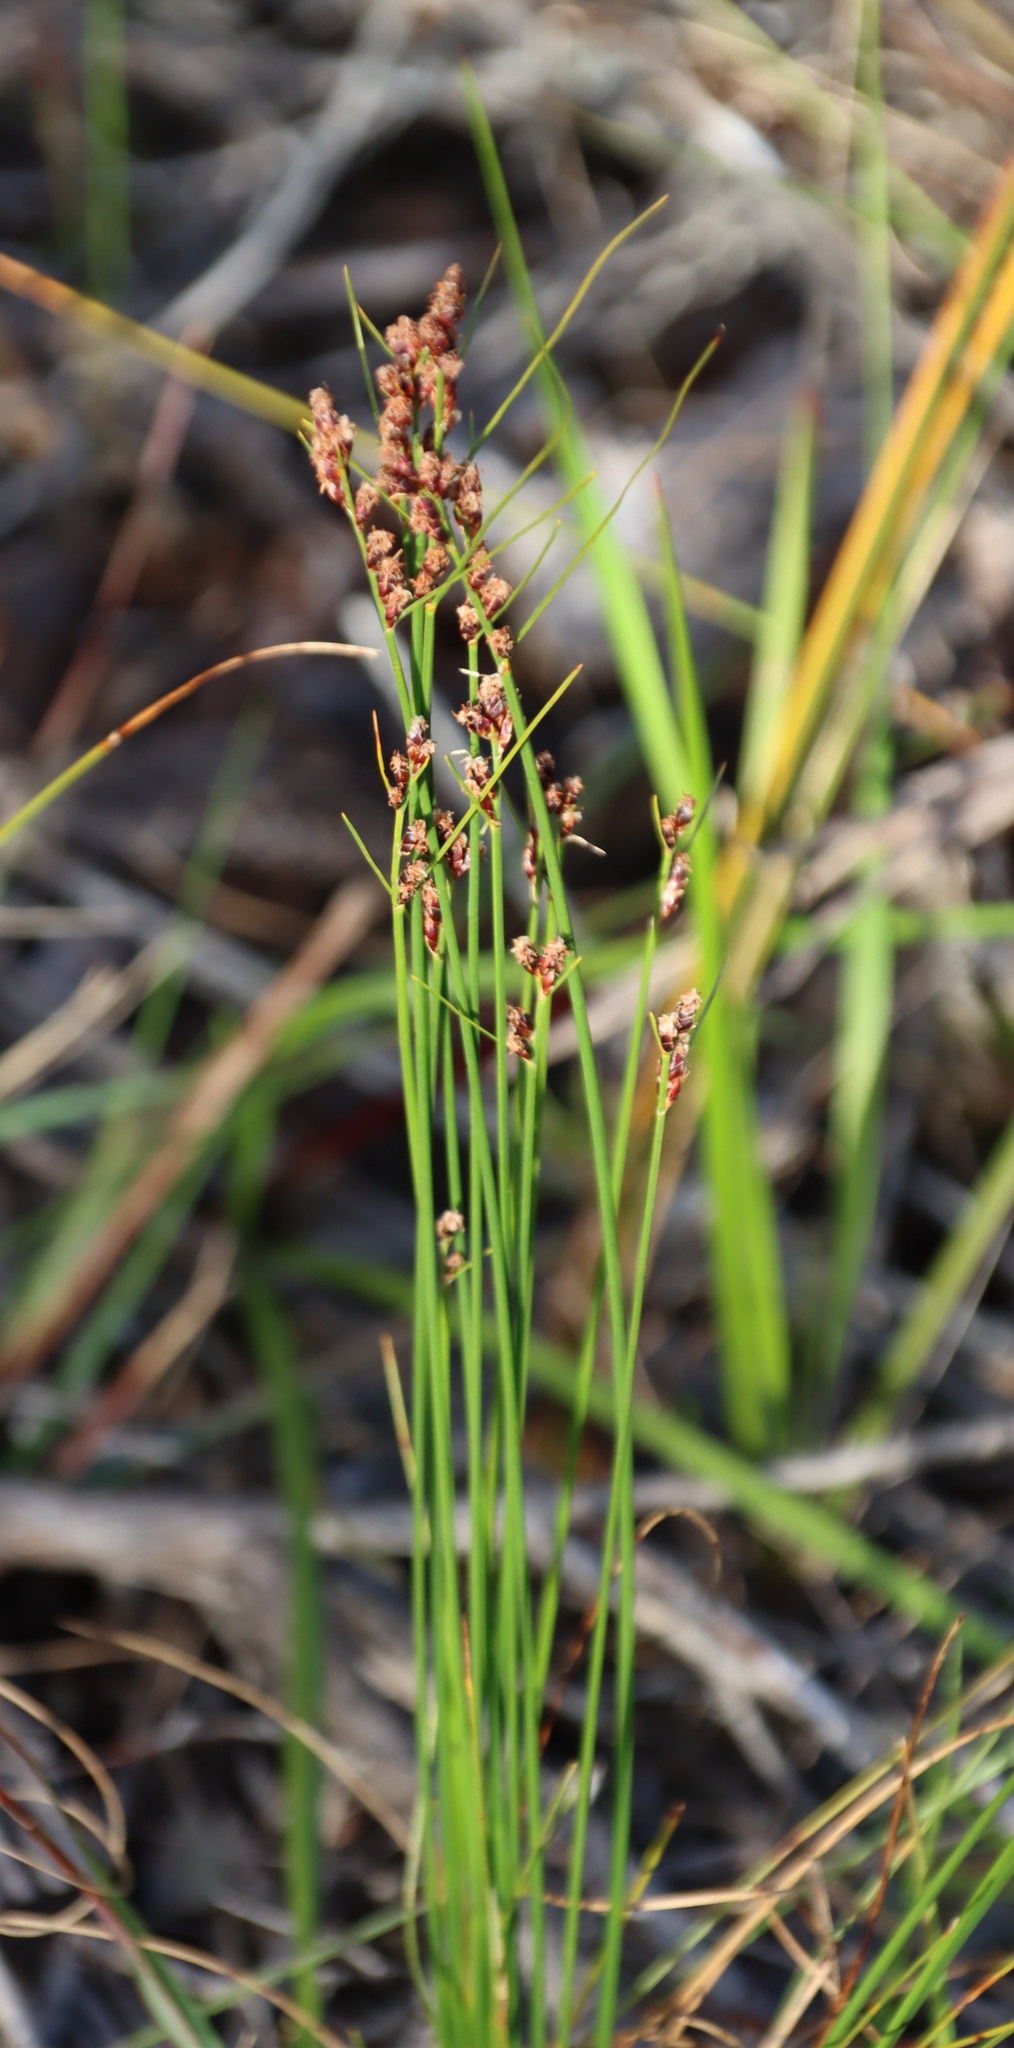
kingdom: Plantae
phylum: Tracheophyta
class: Liliopsida
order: Poales
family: Cyperaceae
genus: Ficinia
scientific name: Ficinia secunda
